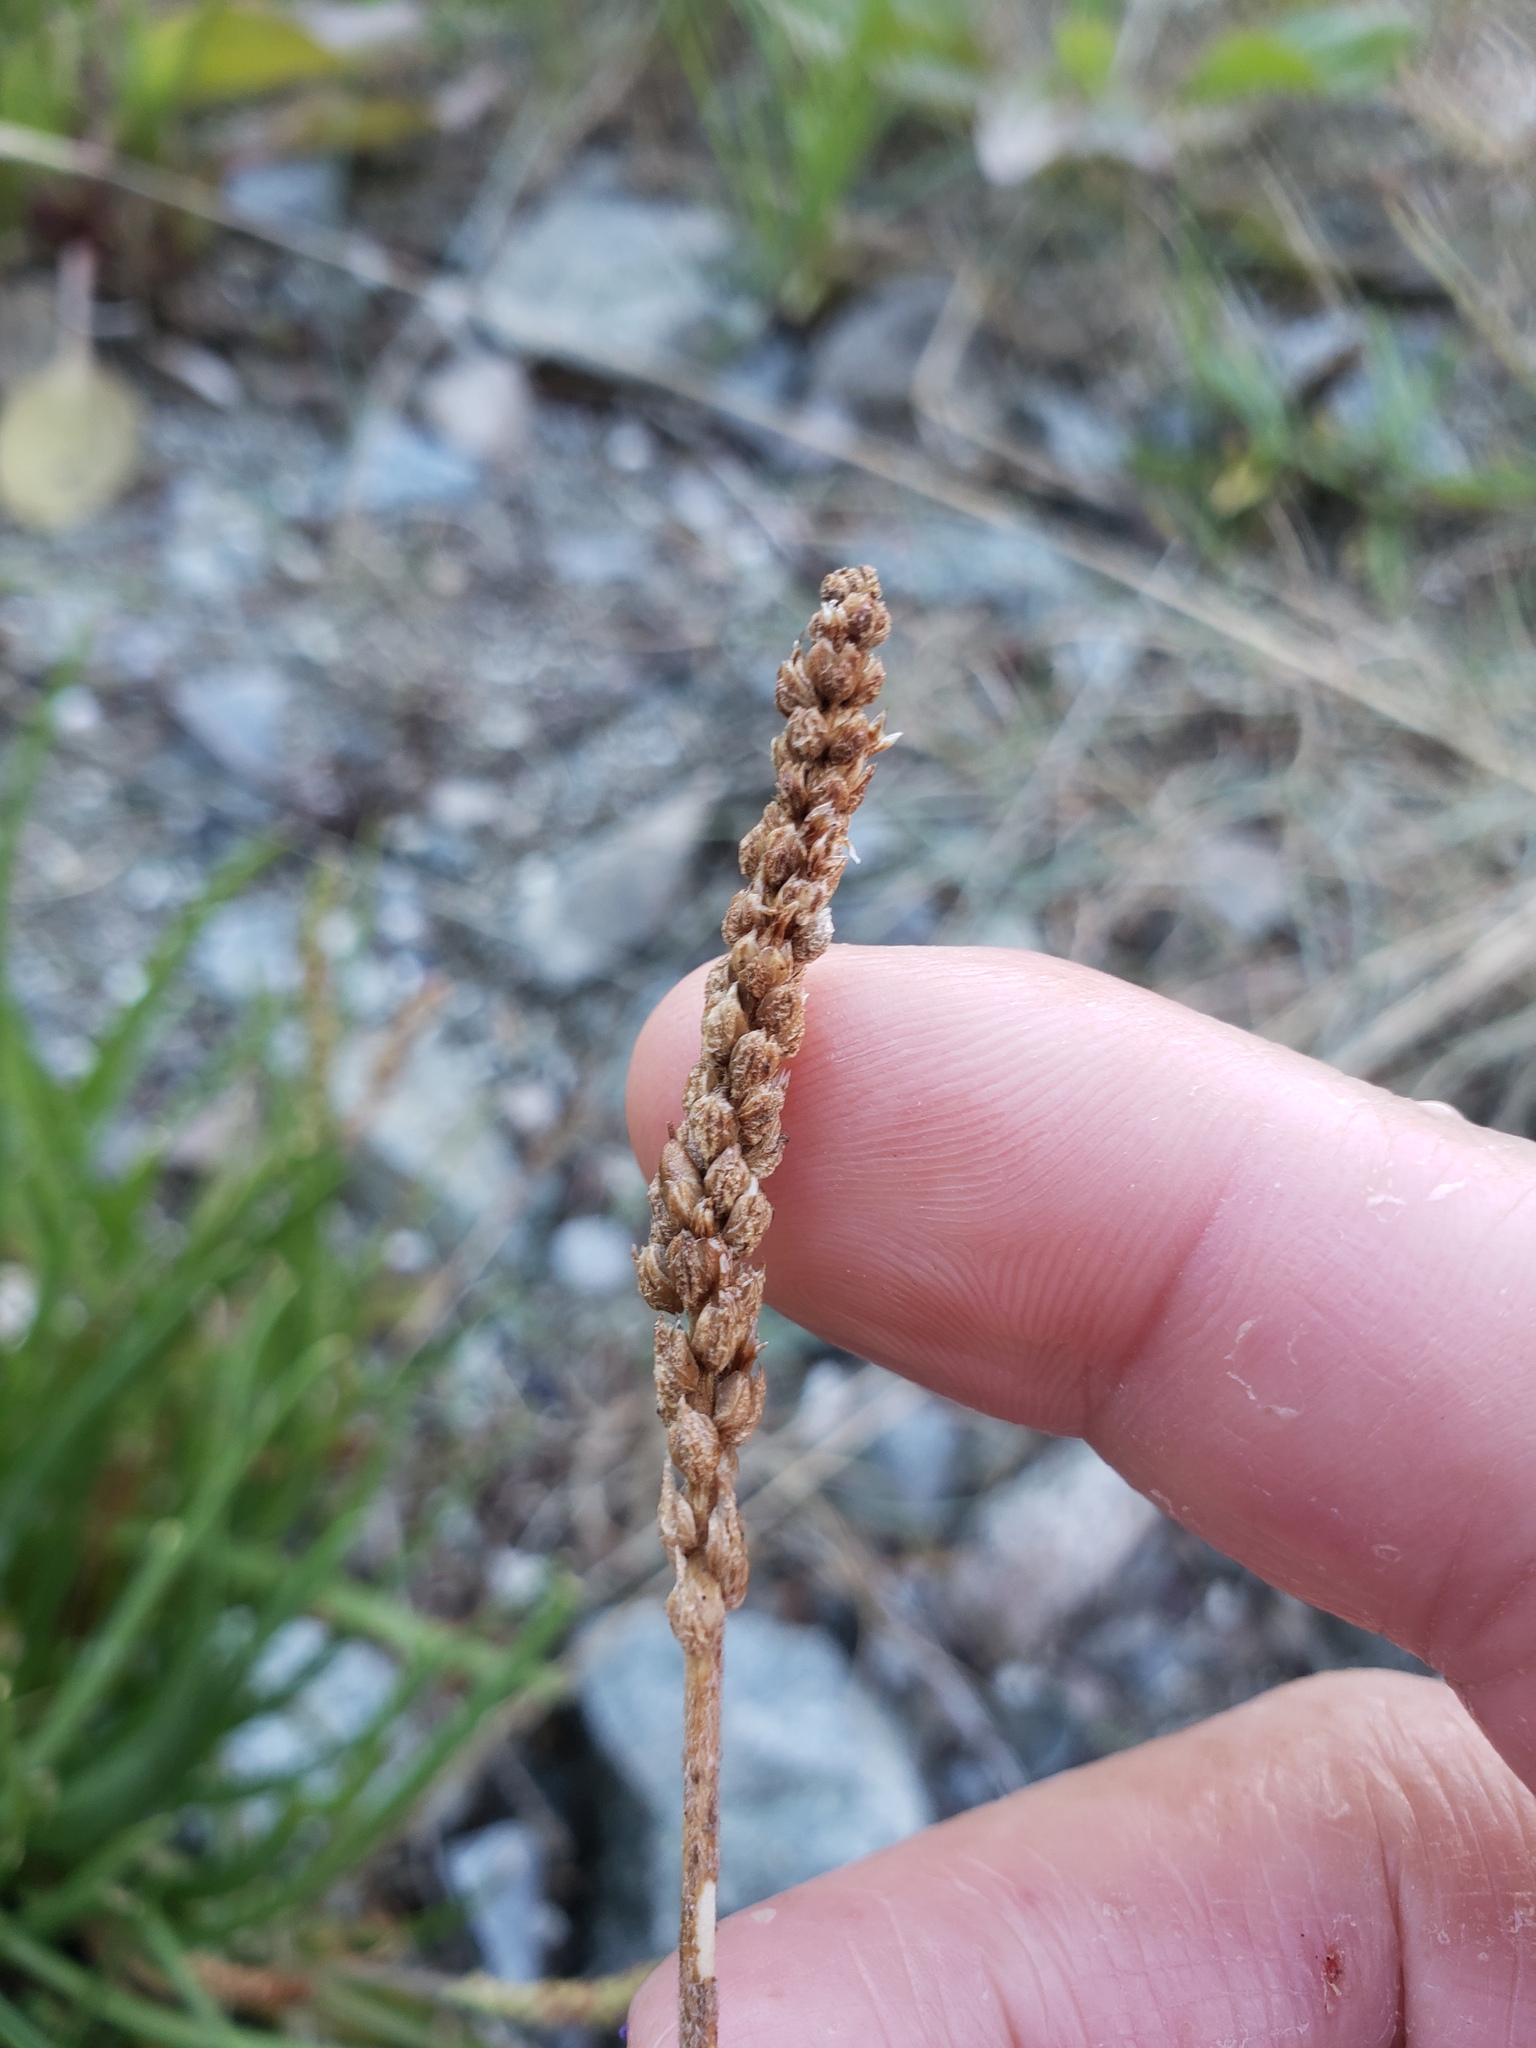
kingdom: Plantae
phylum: Tracheophyta
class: Magnoliopsida
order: Lamiales
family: Plantaginaceae
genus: Plantago
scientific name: Plantago maritima
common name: Sea plantain
